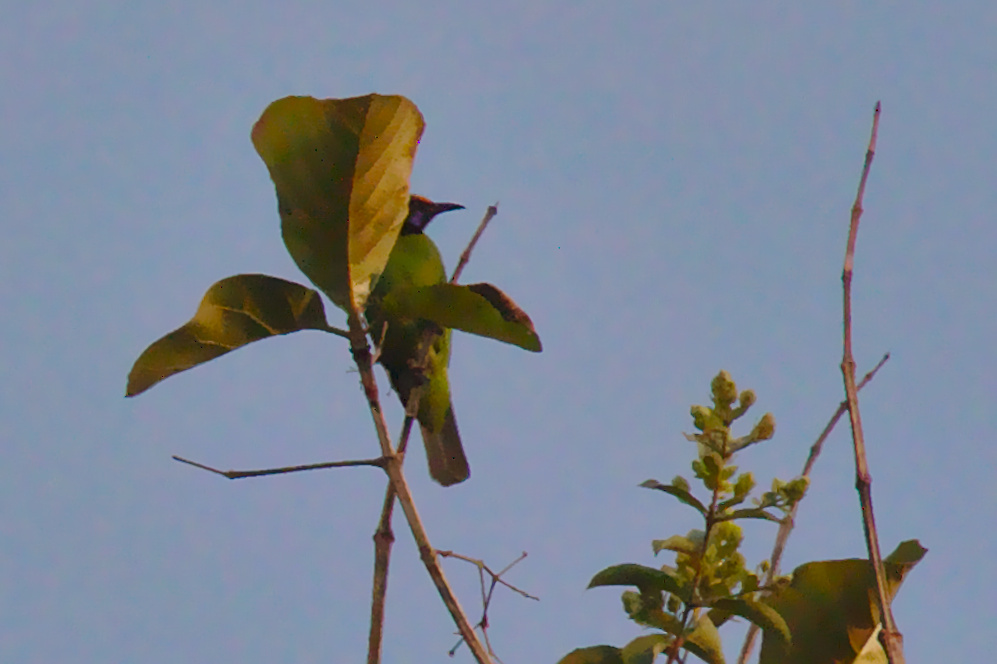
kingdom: Animalia
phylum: Chordata
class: Aves
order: Passeriformes
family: Chloropseidae
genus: Chloropsis
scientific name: Chloropsis aurifrons
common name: Golden-fronted leafbird
